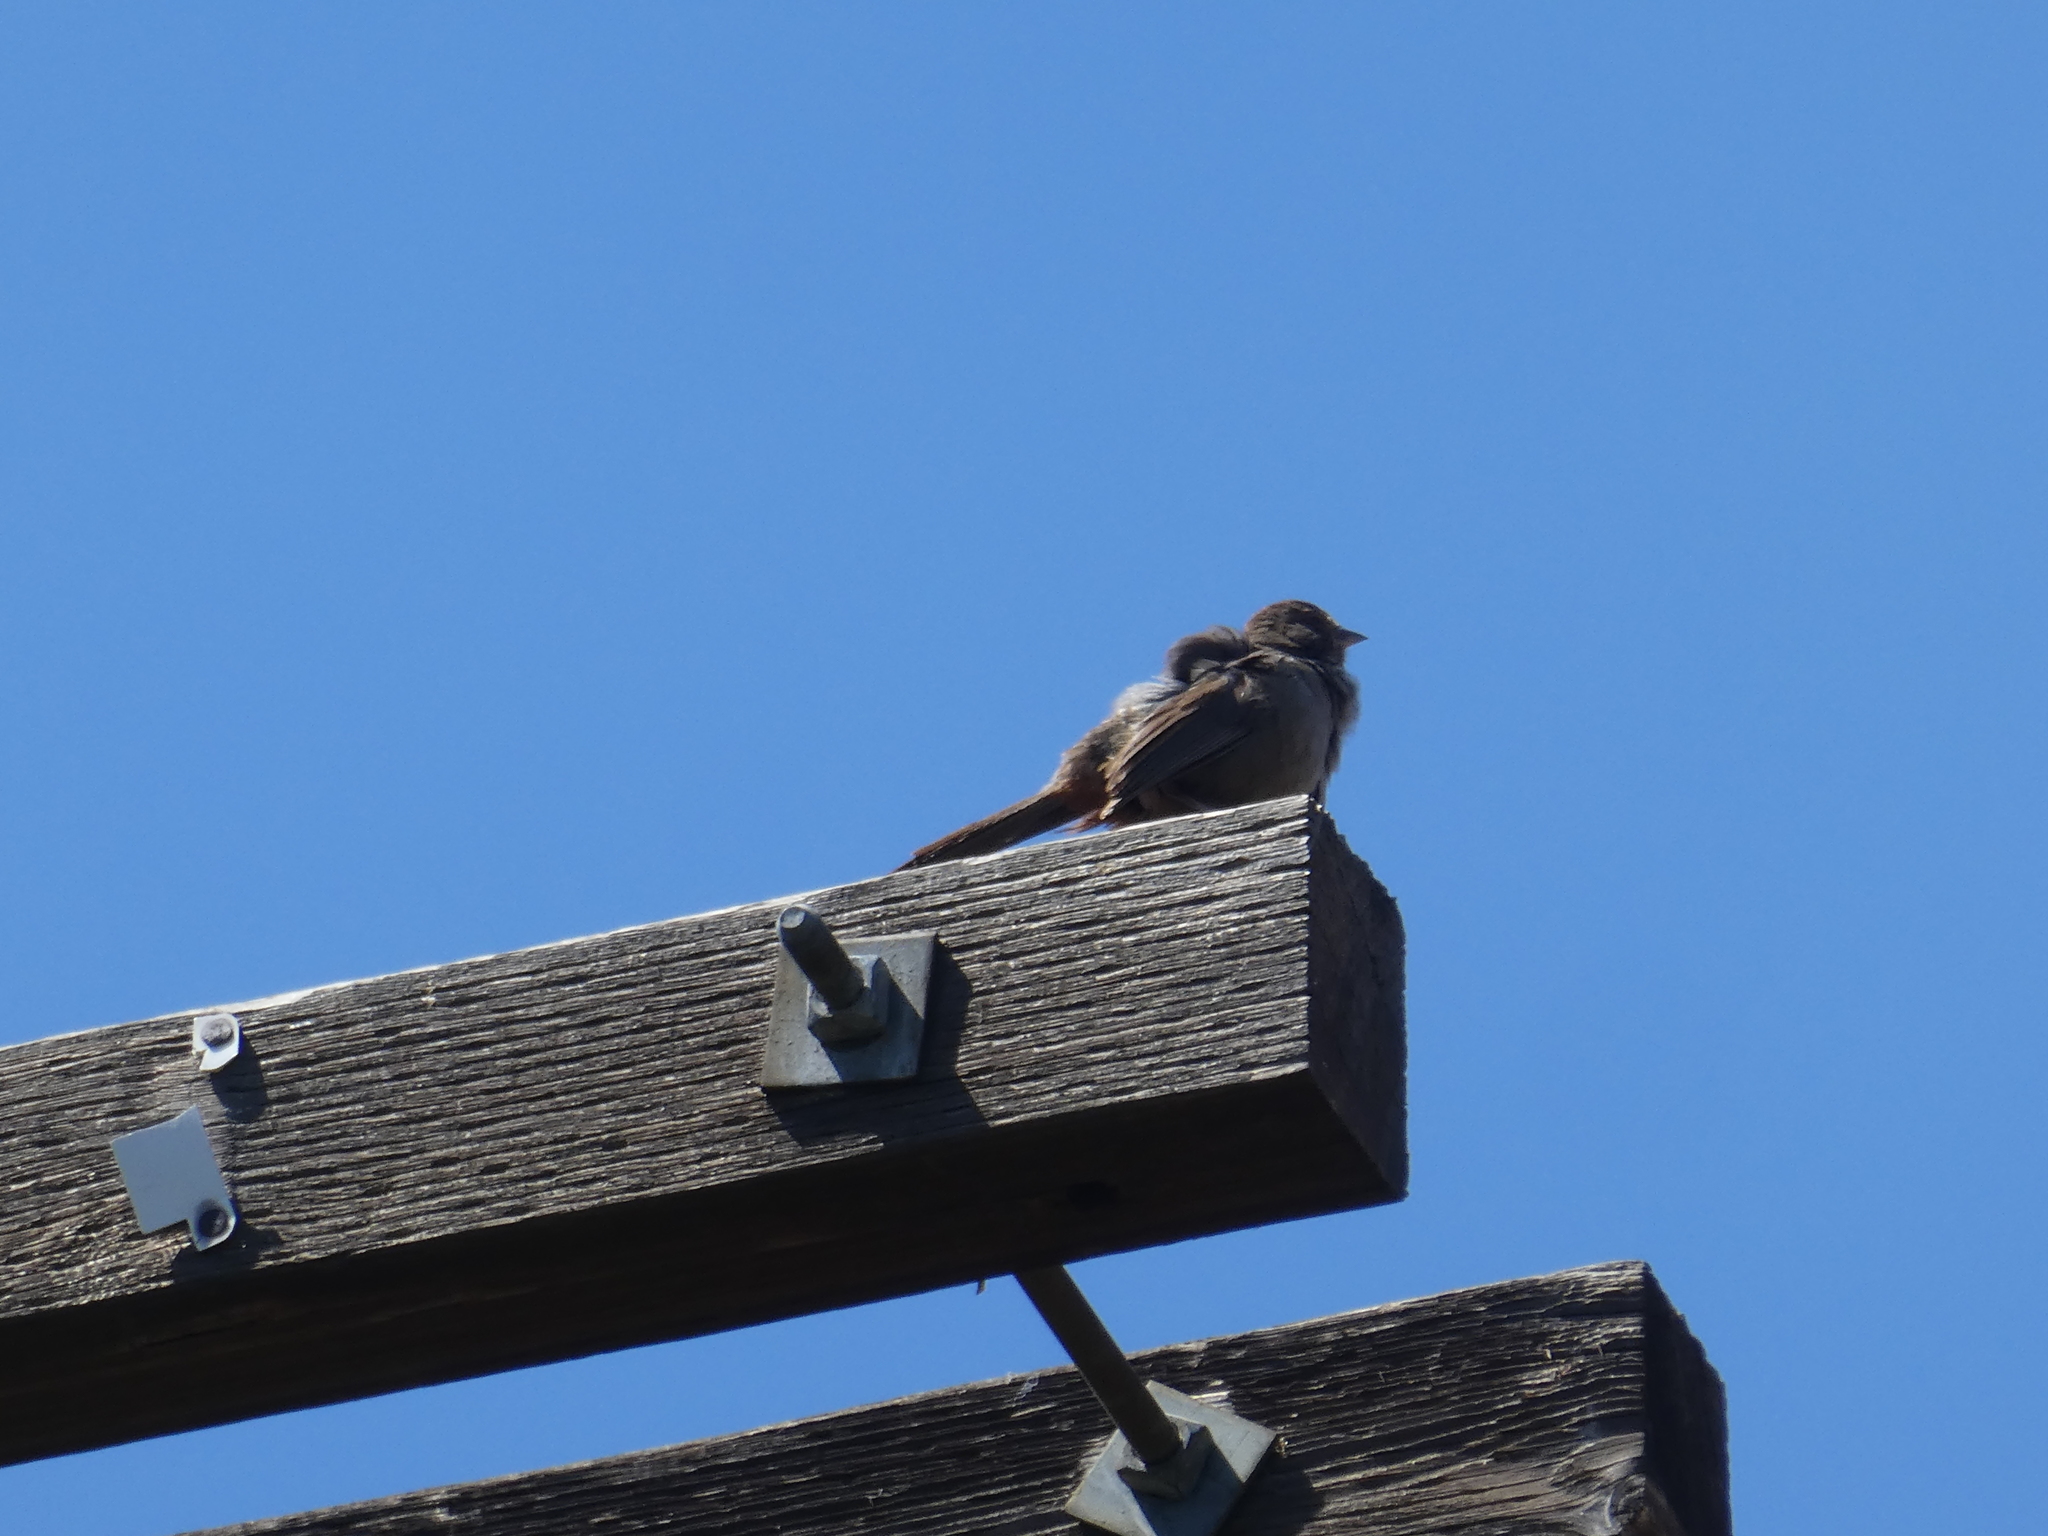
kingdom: Animalia
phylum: Chordata
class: Aves
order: Passeriformes
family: Passerellidae
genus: Melozone
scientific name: Melozone crissalis
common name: California towhee
